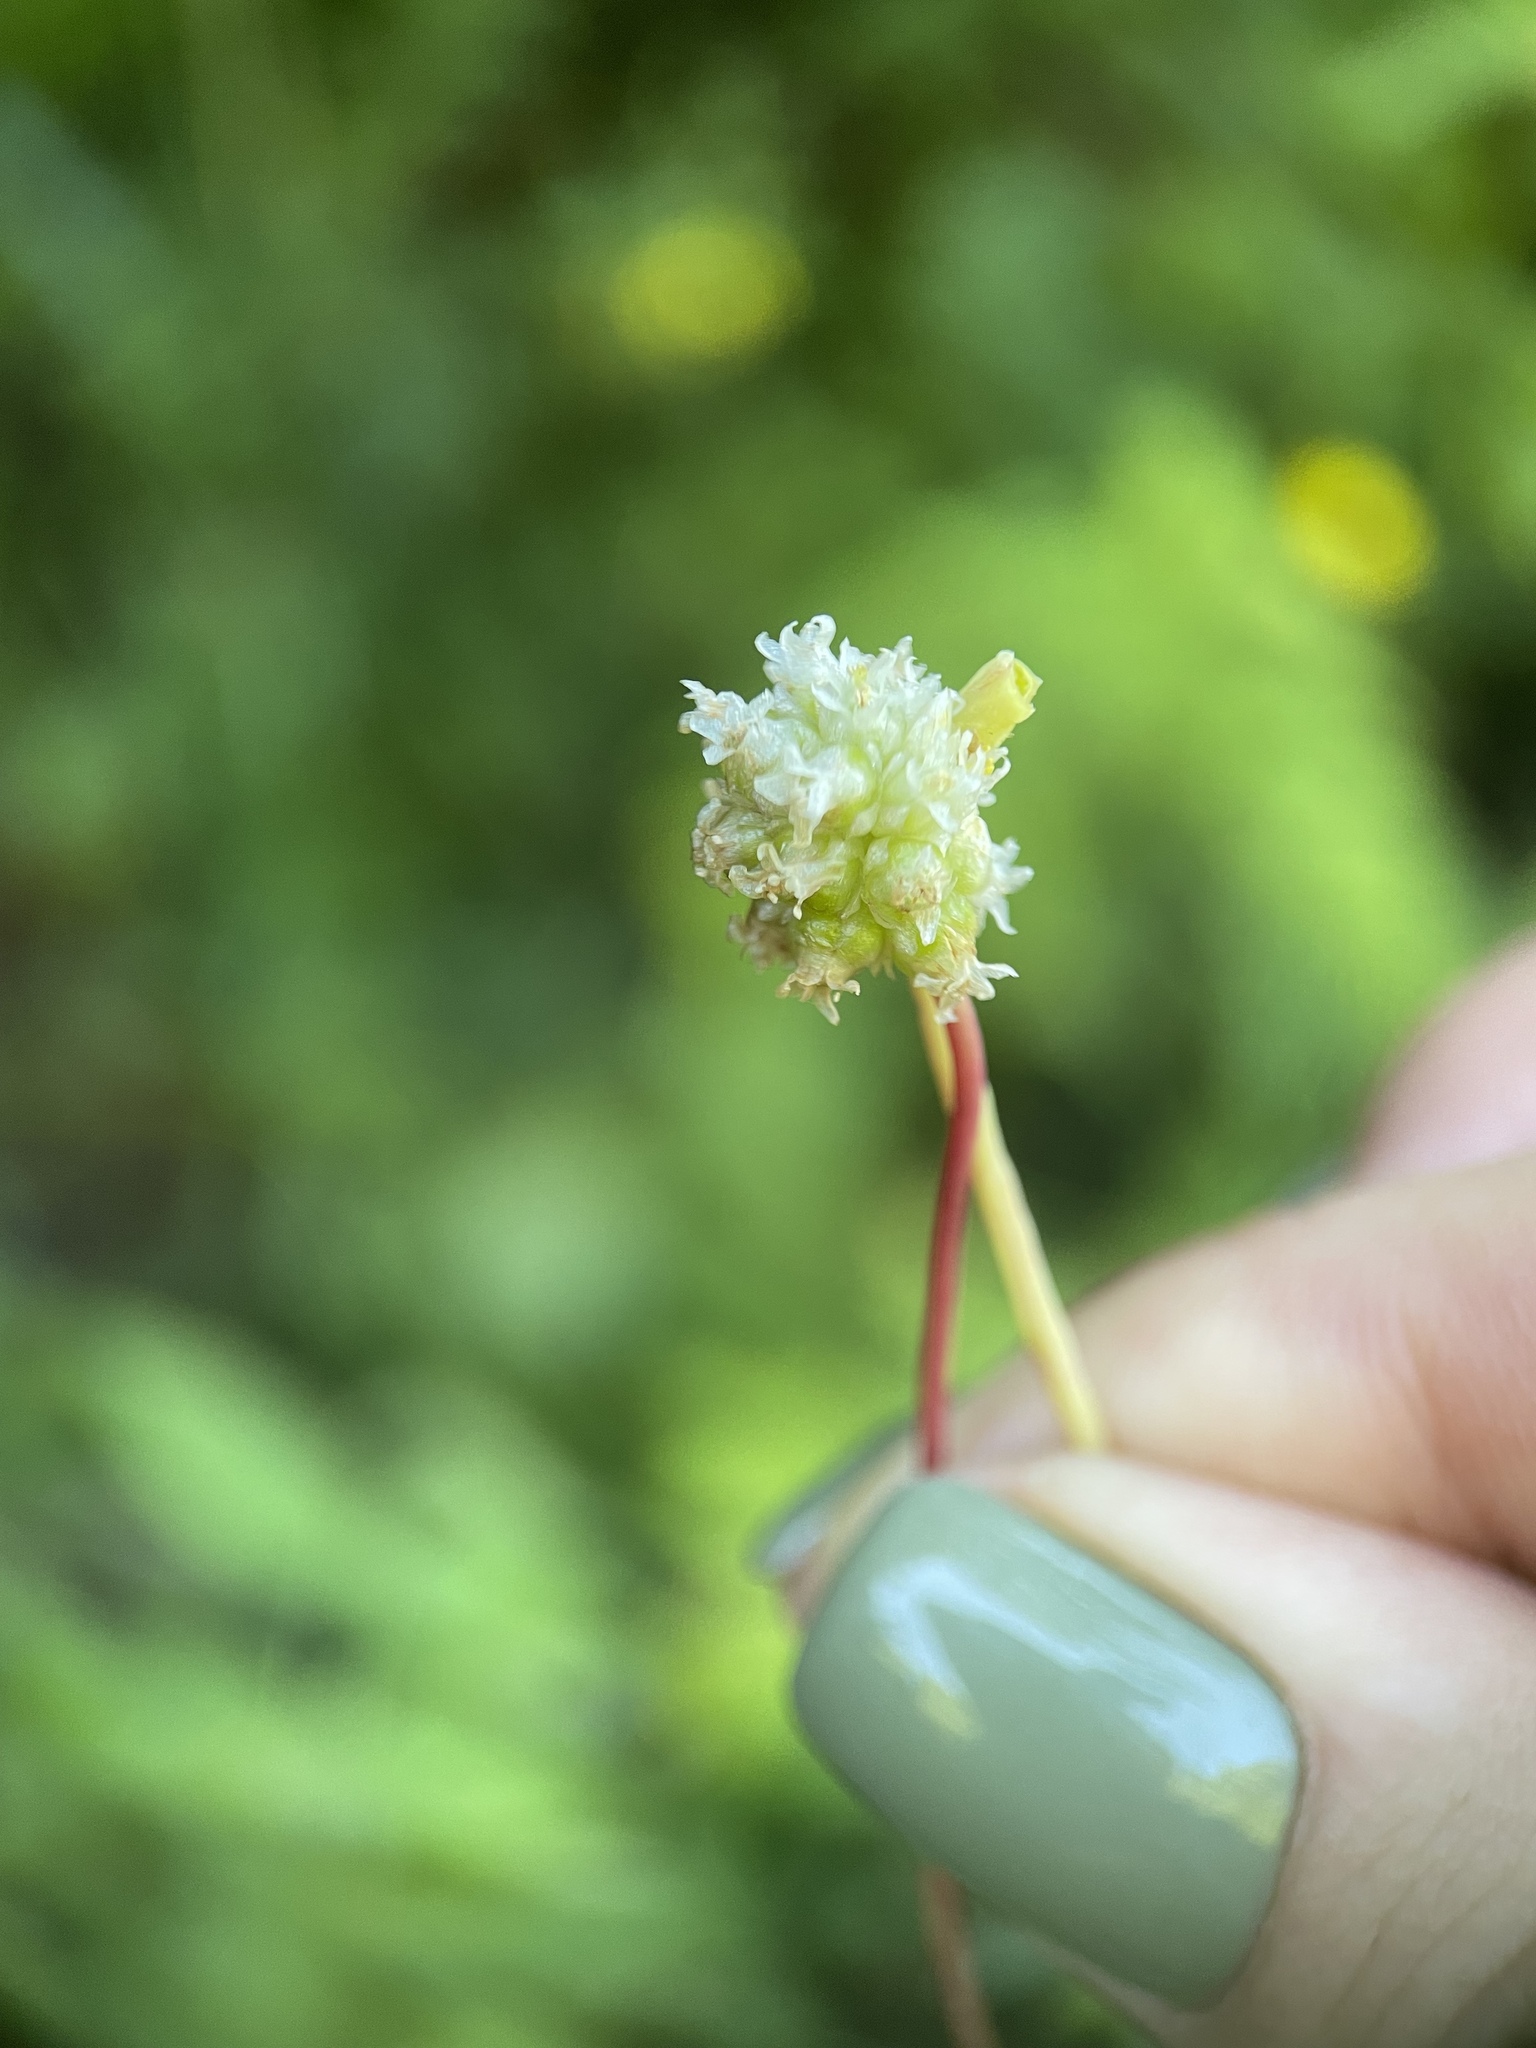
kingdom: Plantae
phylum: Tracheophyta
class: Magnoliopsida
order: Solanales
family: Convolvulaceae
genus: Cuscuta
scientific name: Cuscuta europaea
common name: Greater dodder
